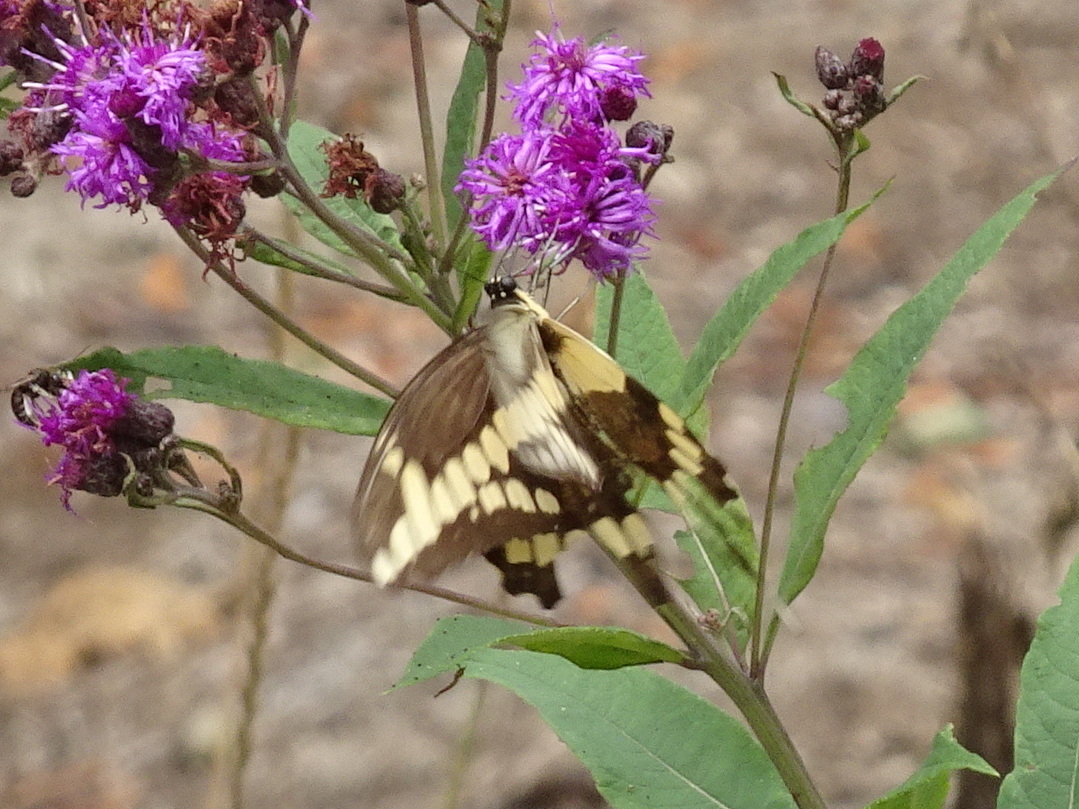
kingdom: Animalia
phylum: Arthropoda
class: Insecta
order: Lepidoptera
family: Papilionidae
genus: Papilio
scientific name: Papilio cresphontes
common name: Giant swallowtail
